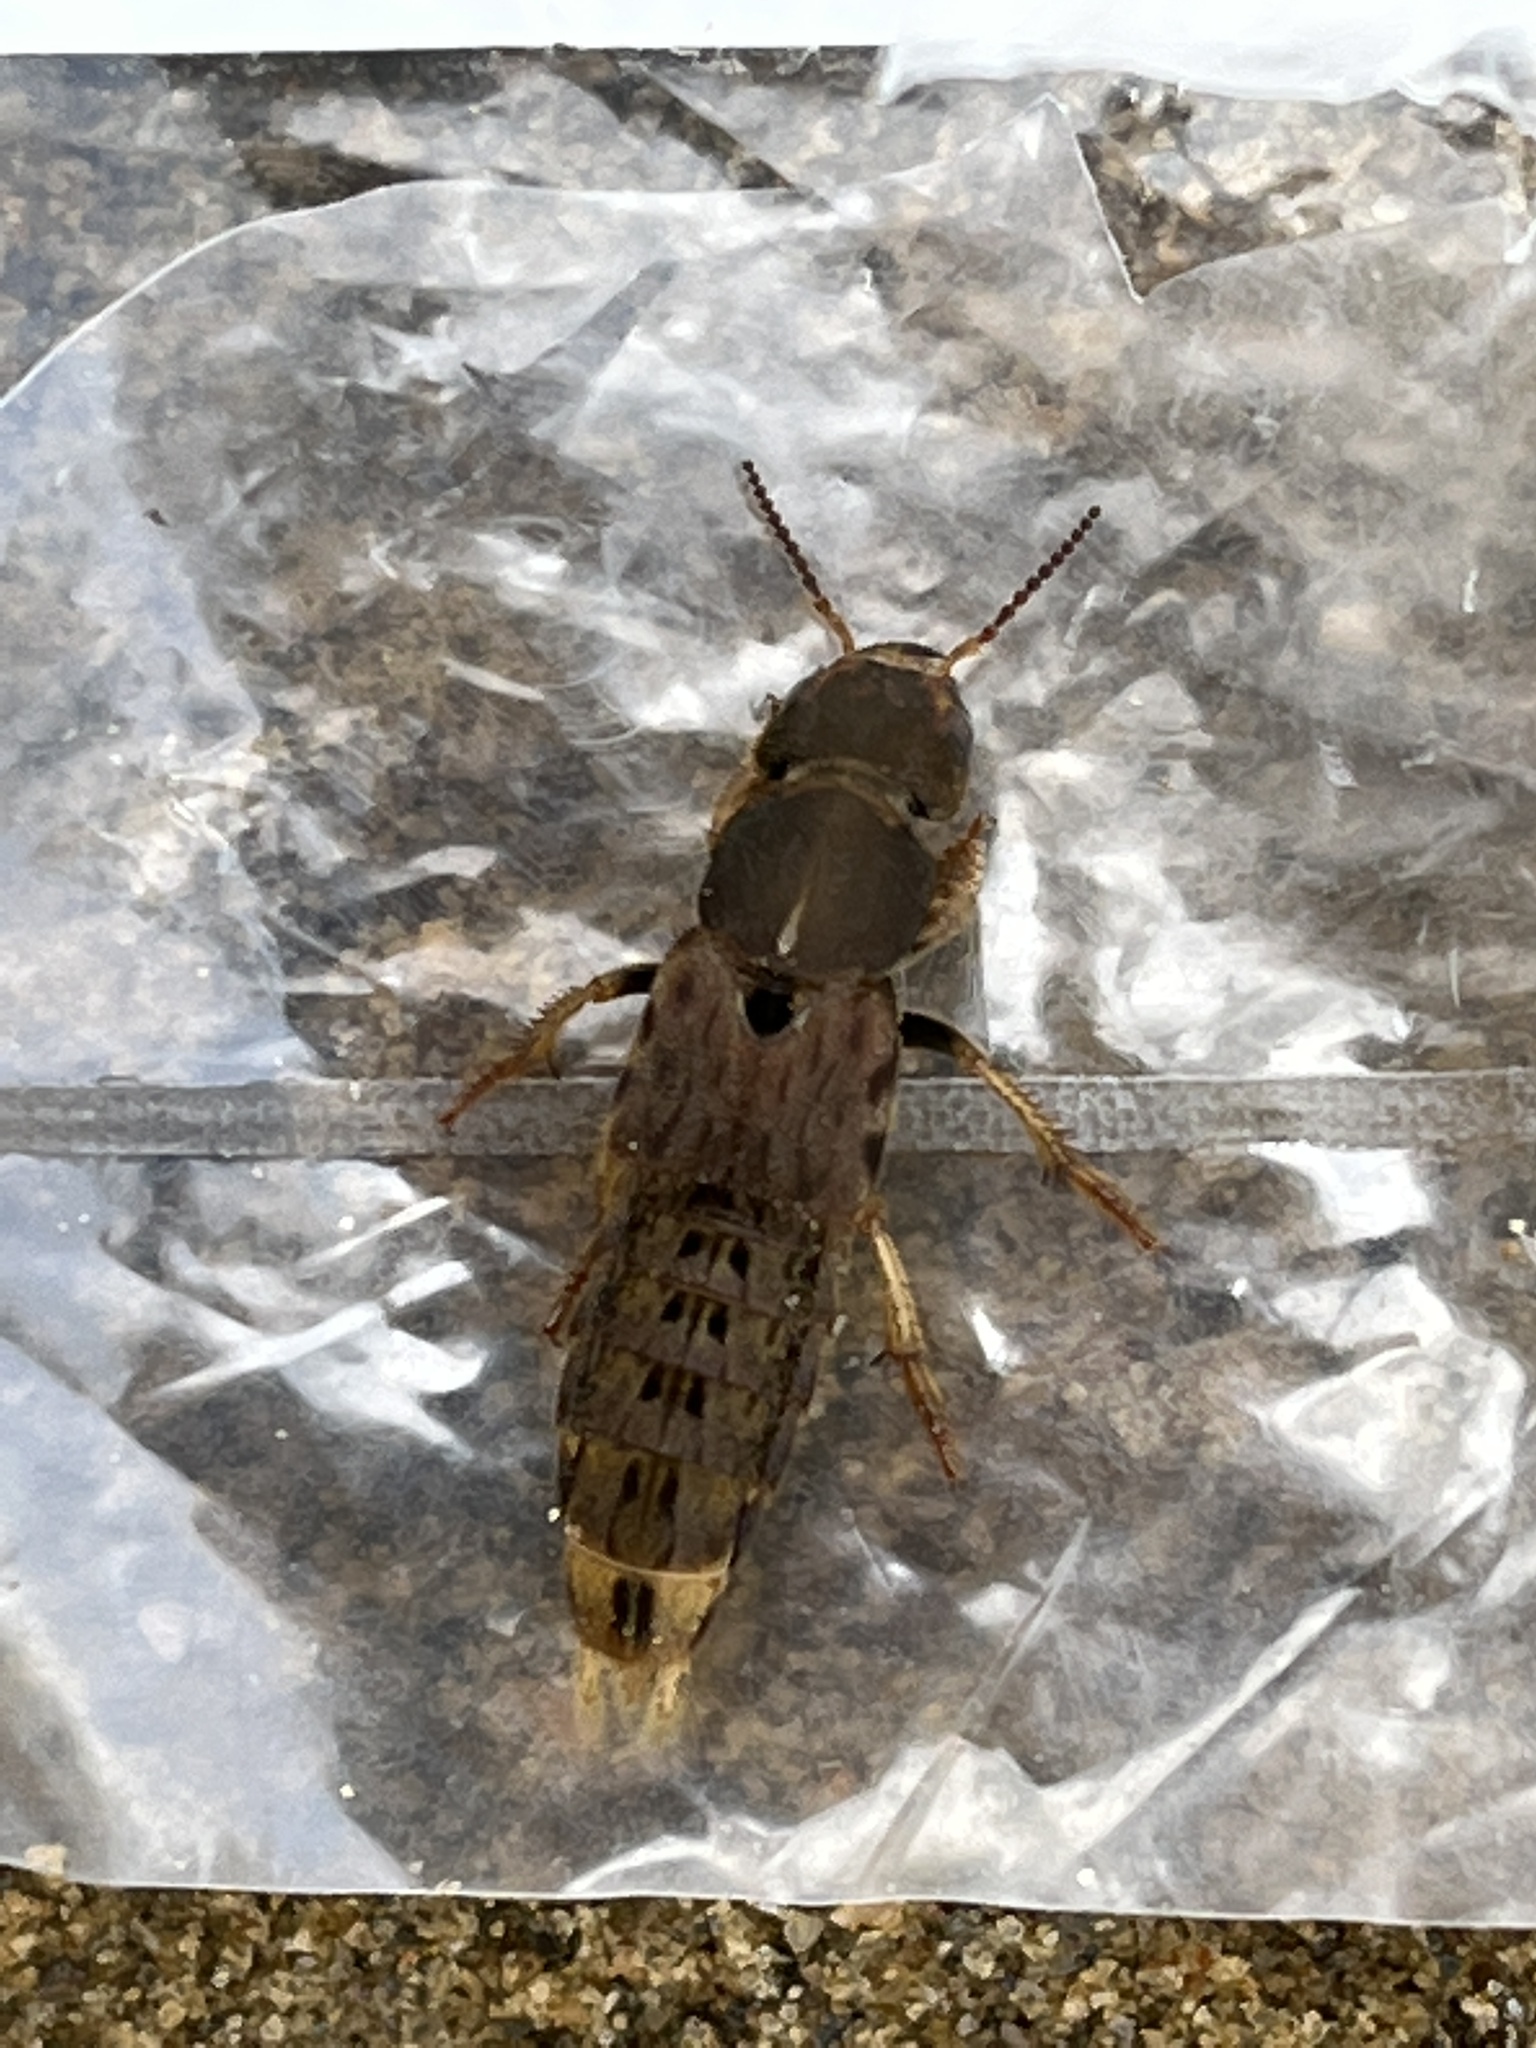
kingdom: Animalia
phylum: Arthropoda
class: Insecta
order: Coleoptera
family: Staphylinidae
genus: Platydracus
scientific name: Platydracus maculosus
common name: Brown rove beetle
